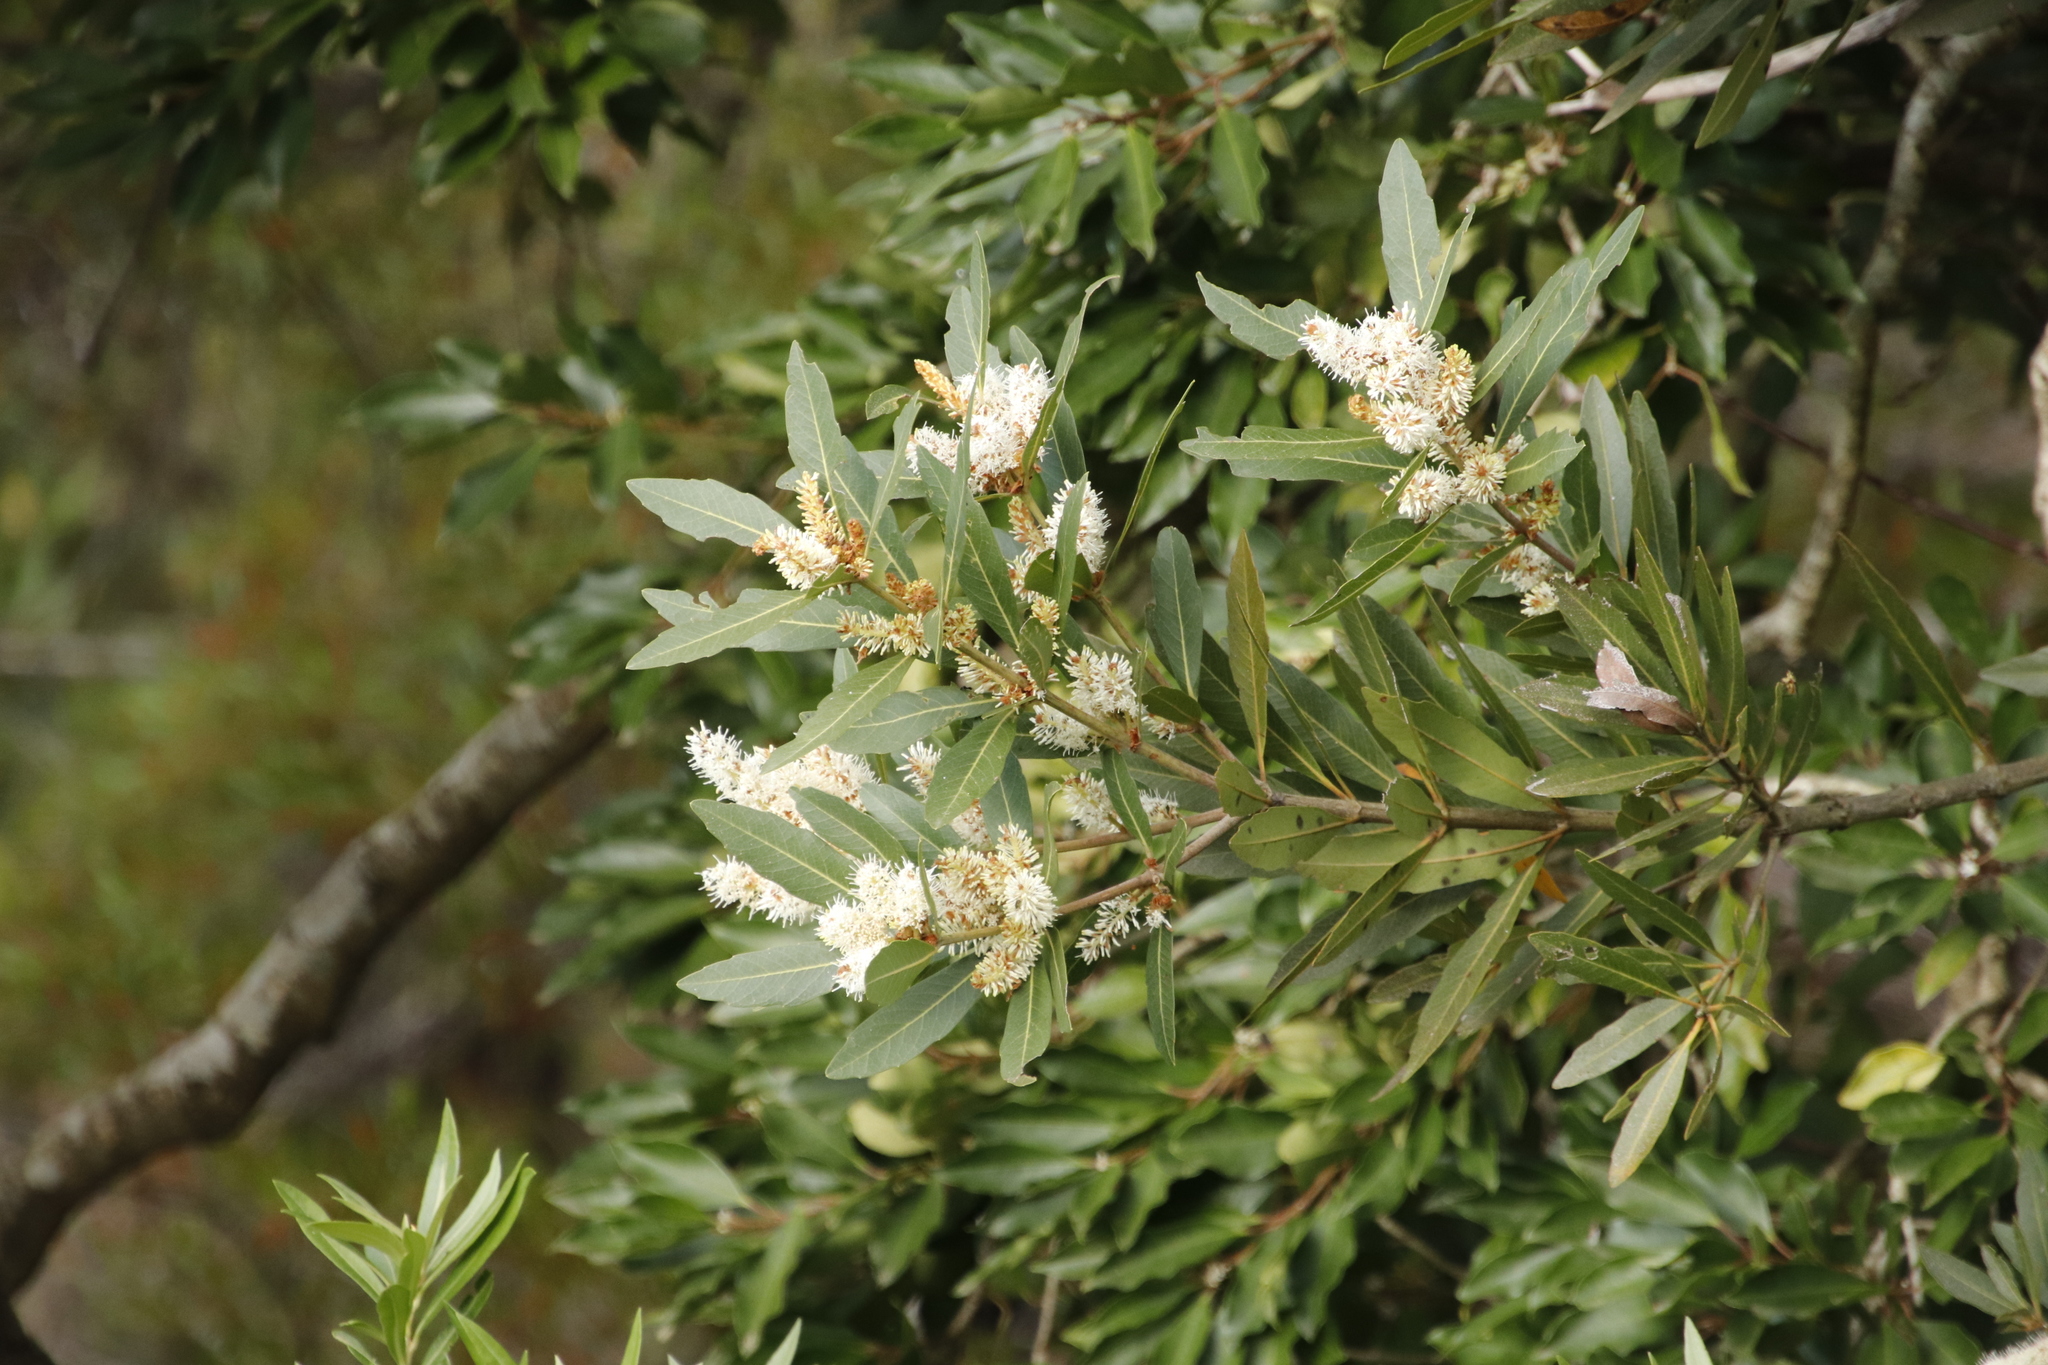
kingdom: Plantae
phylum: Tracheophyta
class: Magnoliopsida
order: Proteales
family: Proteaceae
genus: Brabejum
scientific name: Brabejum stellatifolium
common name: Wild almond
